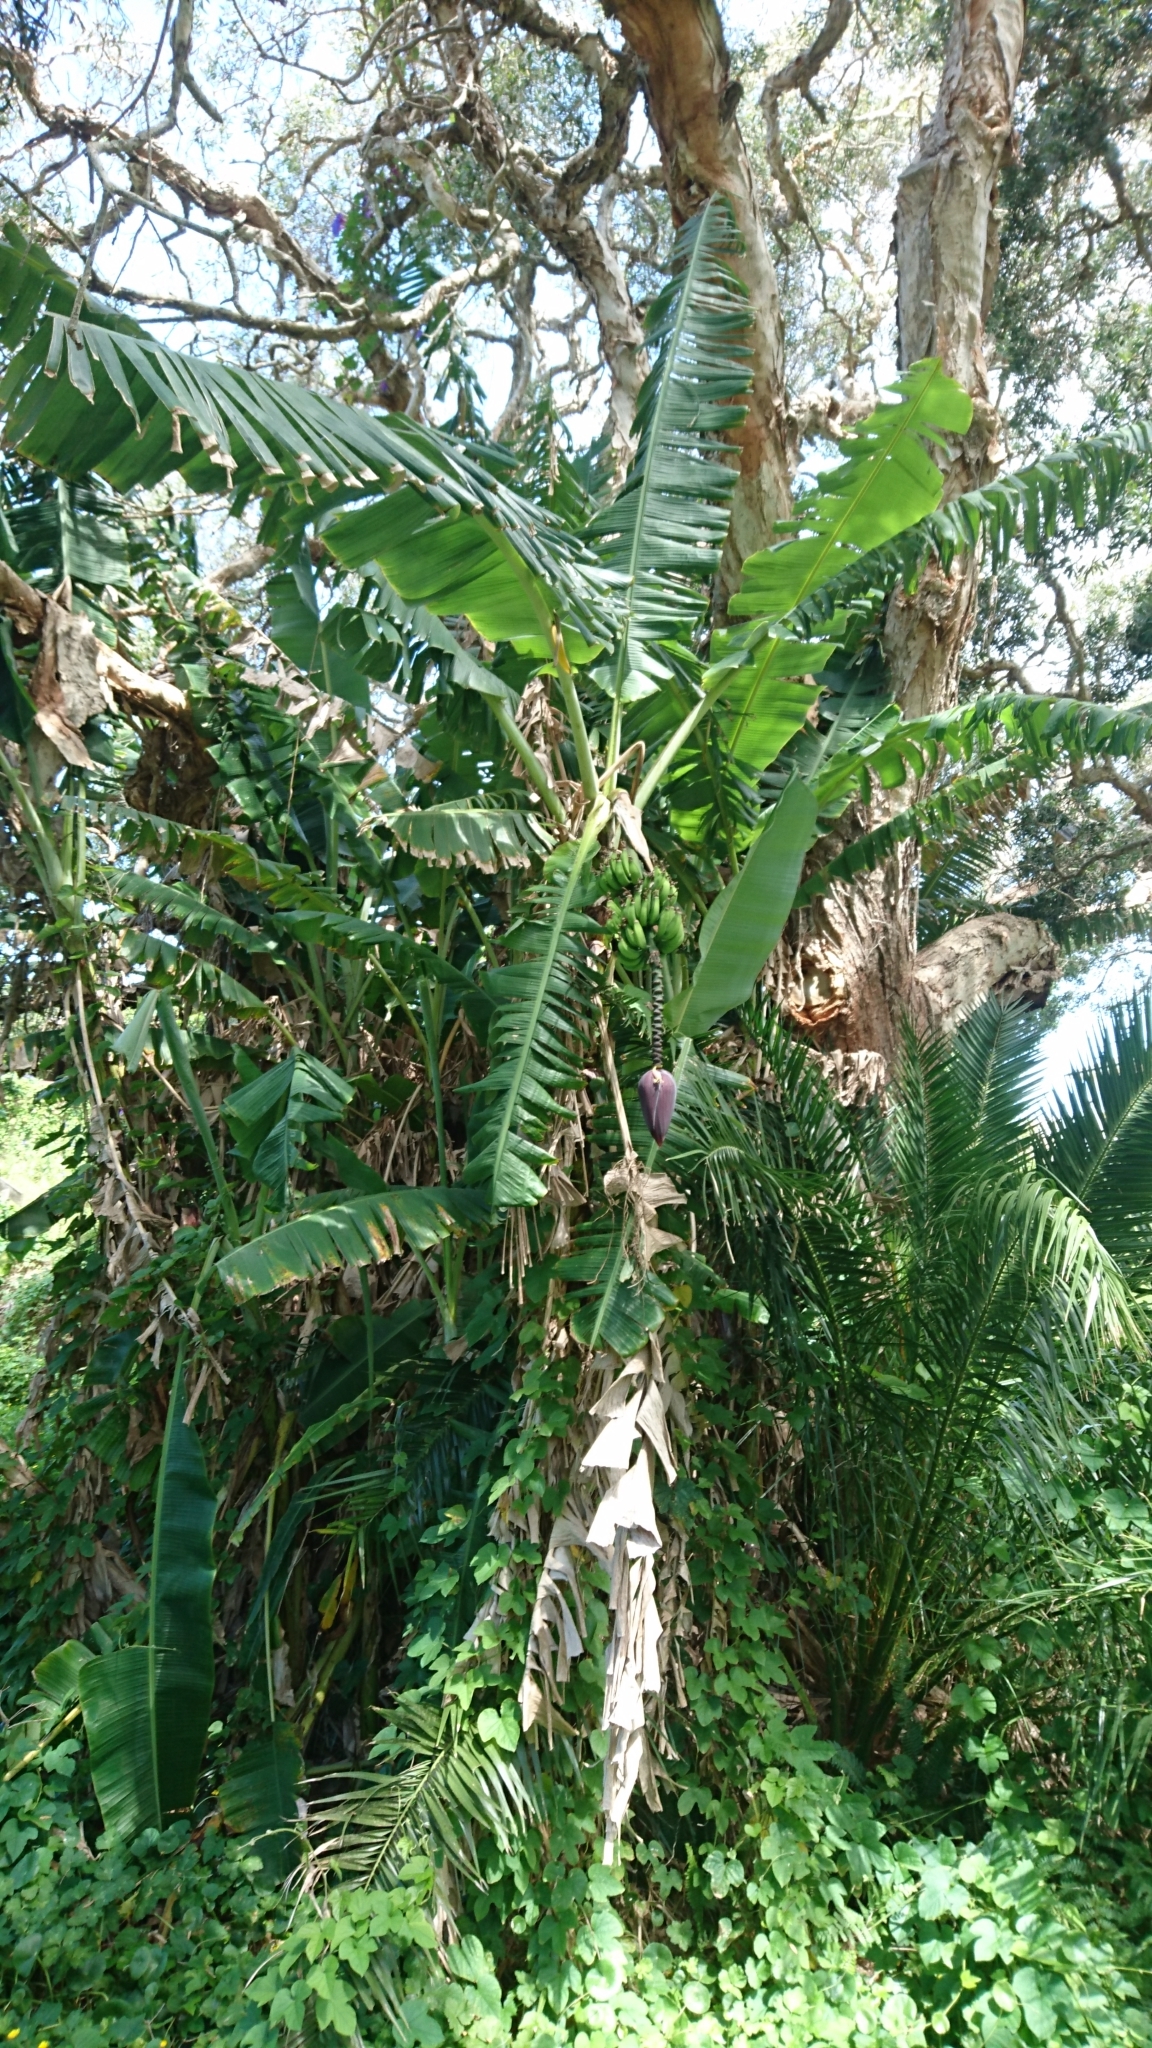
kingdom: Plantae
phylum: Tracheophyta
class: Liliopsida
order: Zingiberales
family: Musaceae
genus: Musa
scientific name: Musa paradisiaca
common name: French plantain
